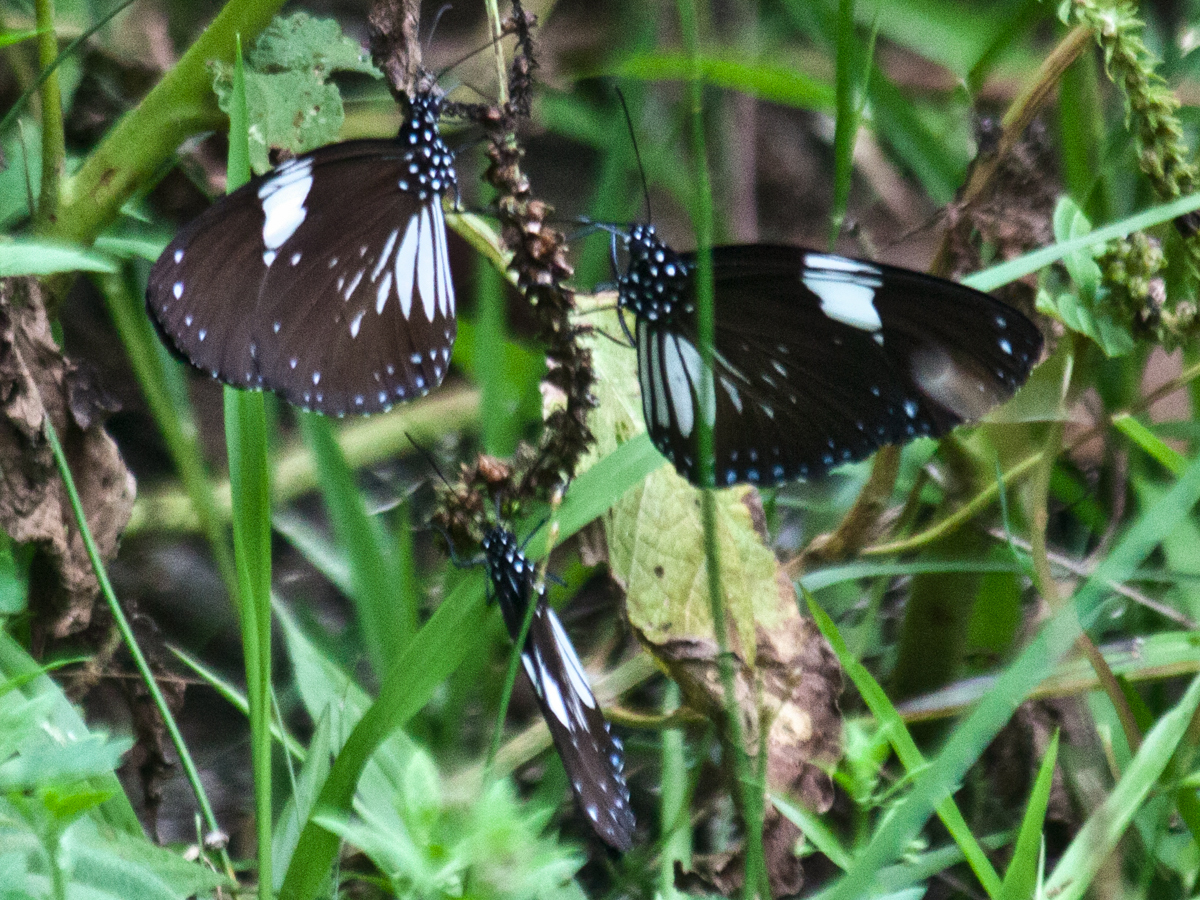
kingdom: Animalia
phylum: Arthropoda
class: Insecta
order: Lepidoptera
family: Nymphalidae
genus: Euploea
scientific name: Euploea radamanthus
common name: Magpie crow butterfly
